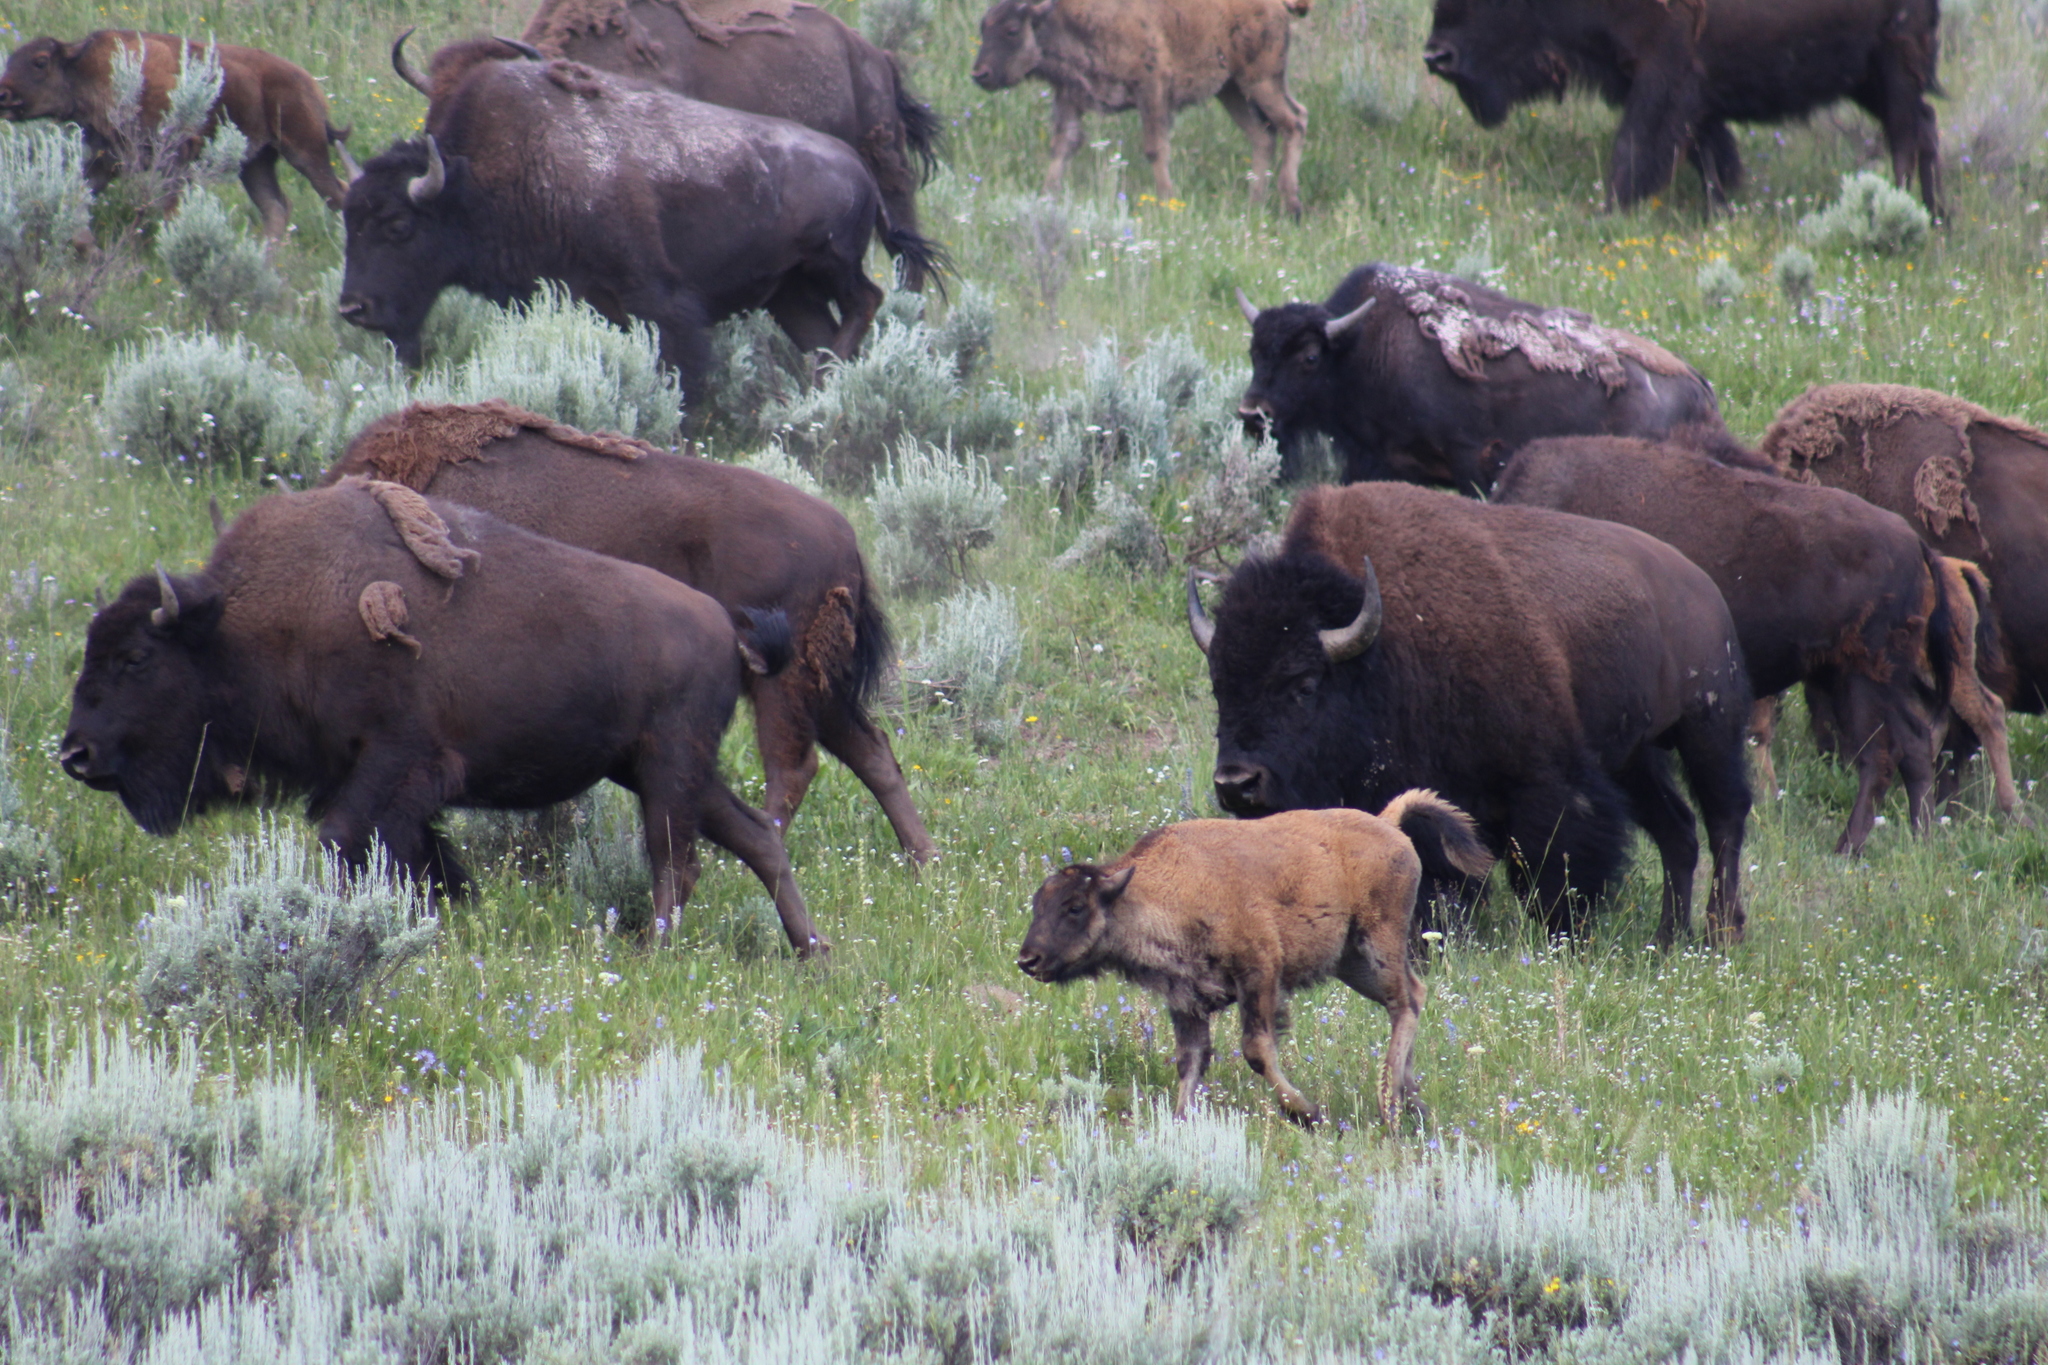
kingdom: Animalia
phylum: Chordata
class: Mammalia
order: Artiodactyla
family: Bovidae
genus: Bison
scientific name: Bison bison
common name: American bison
